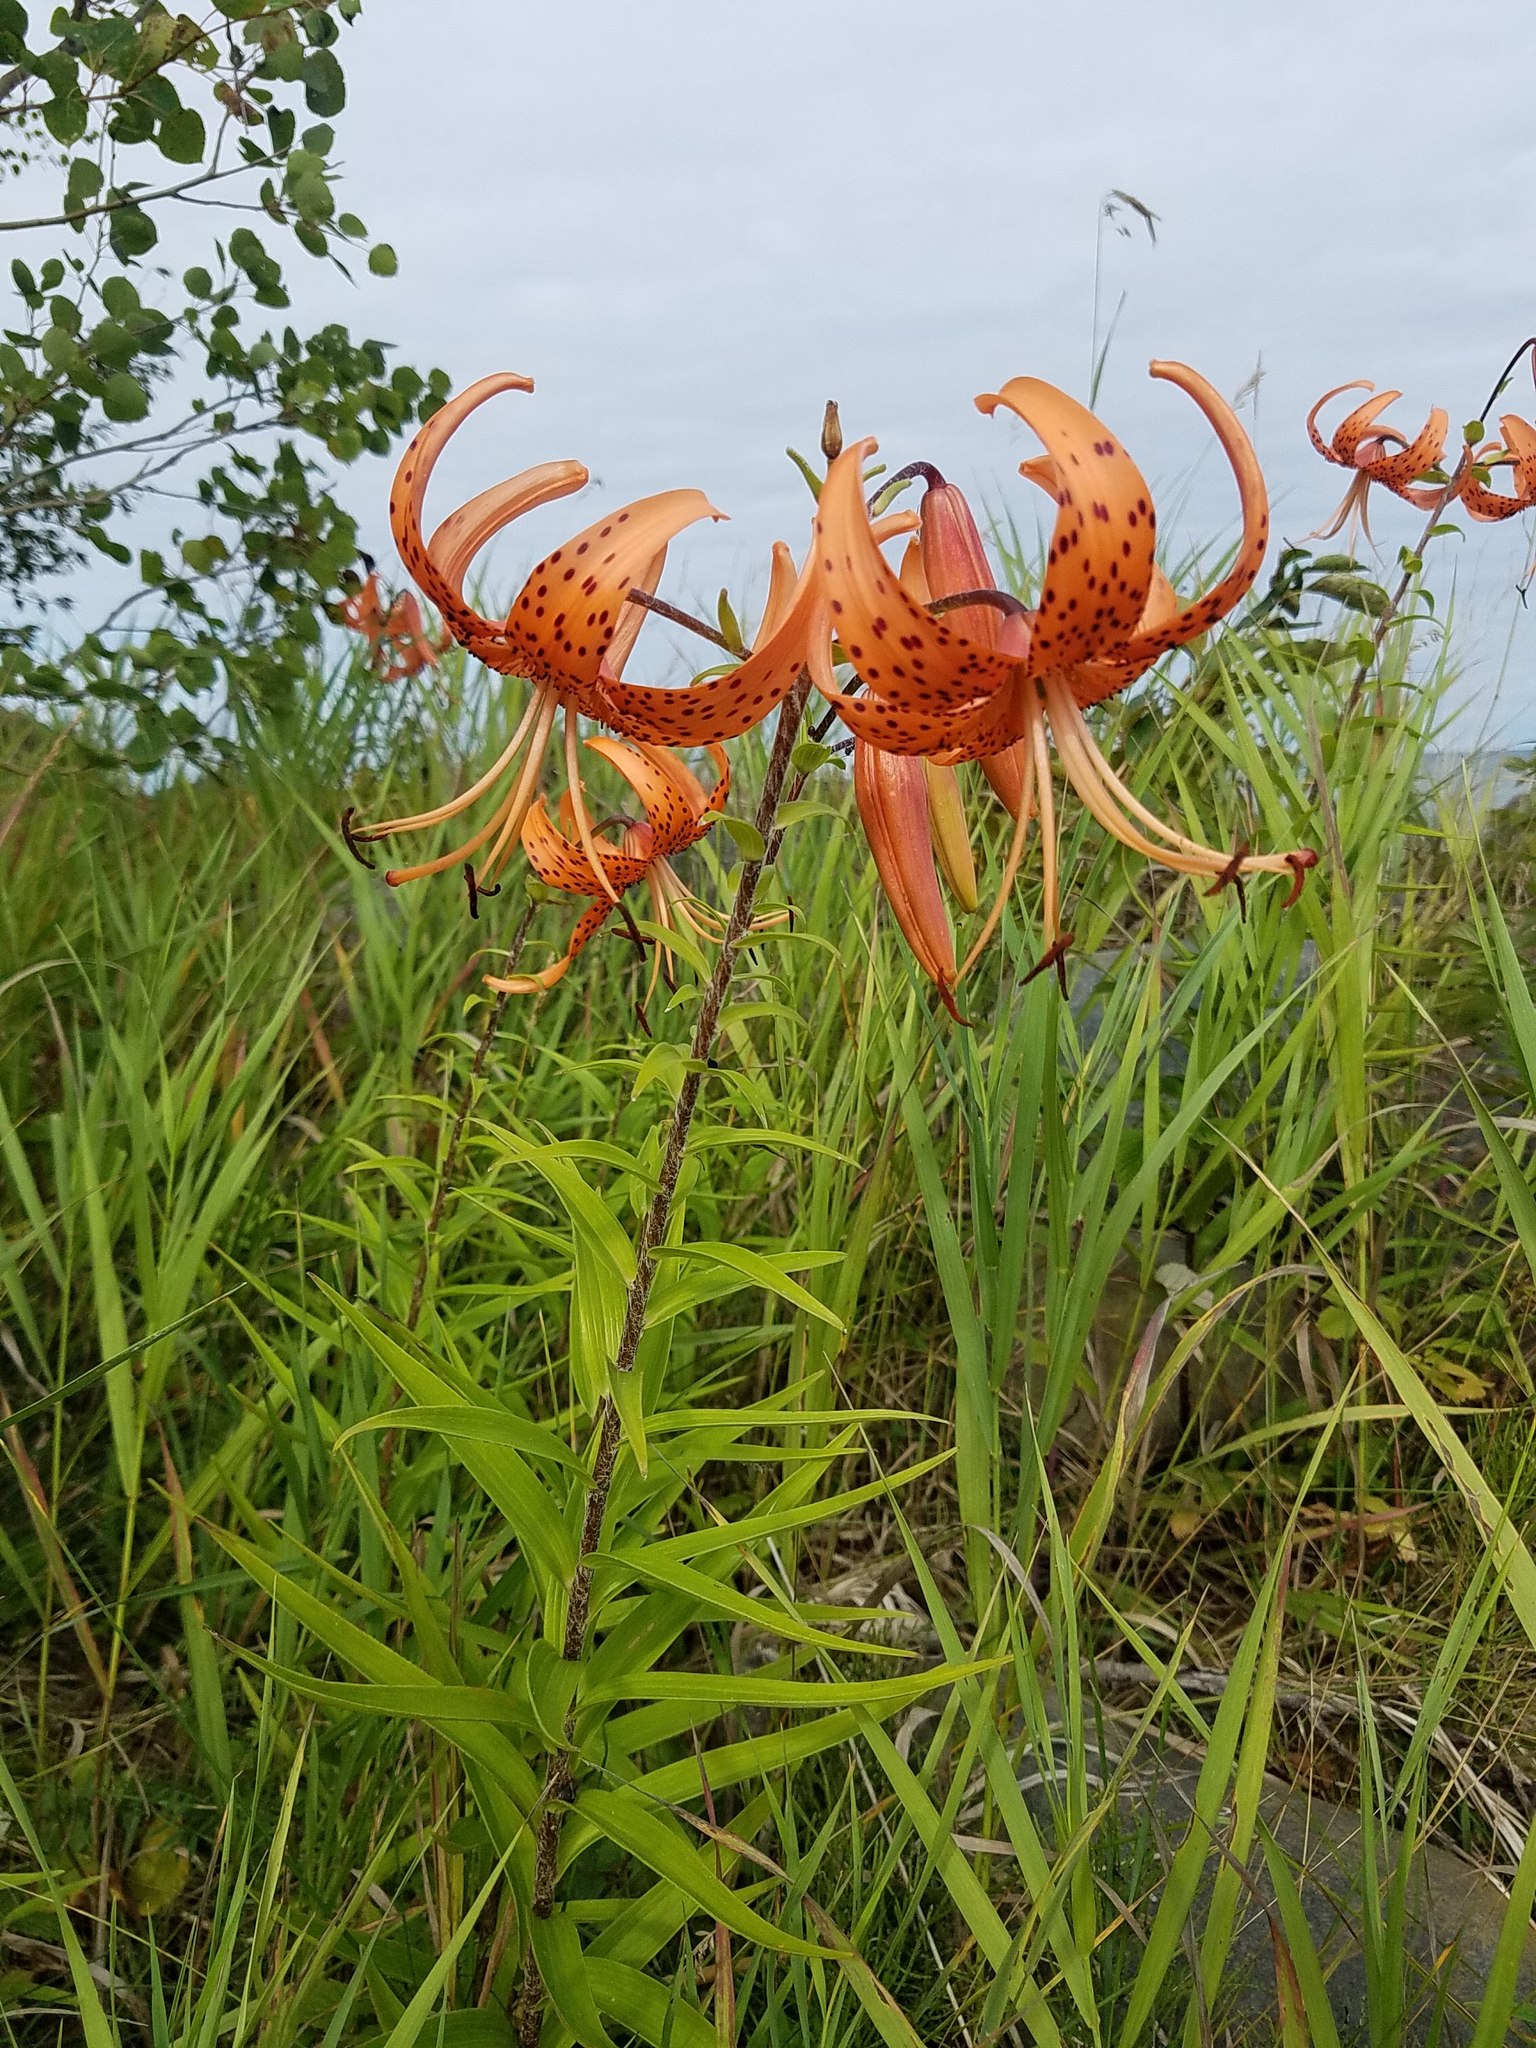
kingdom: Plantae
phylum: Tracheophyta
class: Liliopsida
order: Liliales
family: Liliaceae
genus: Lilium
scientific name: Lilium lancifolium
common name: Tiger lily
